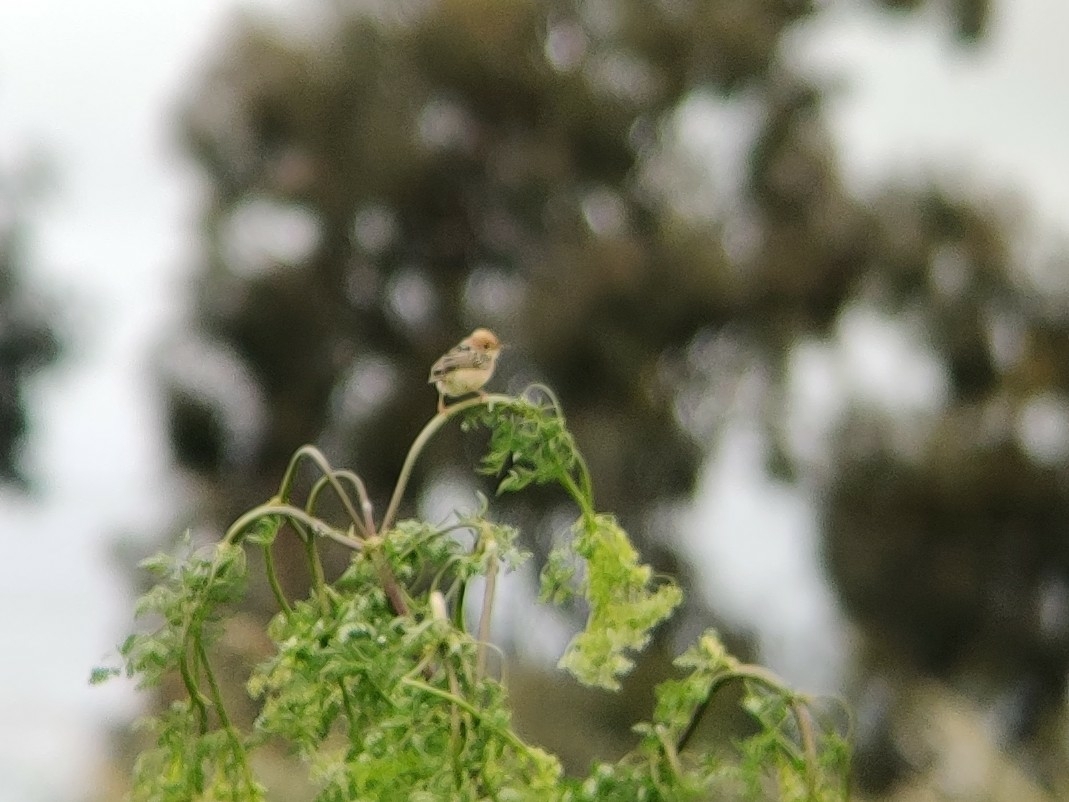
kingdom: Animalia
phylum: Chordata
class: Aves
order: Passeriformes
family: Cisticolidae
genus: Cisticola
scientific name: Cisticola exilis
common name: Golden-headed cisticola
